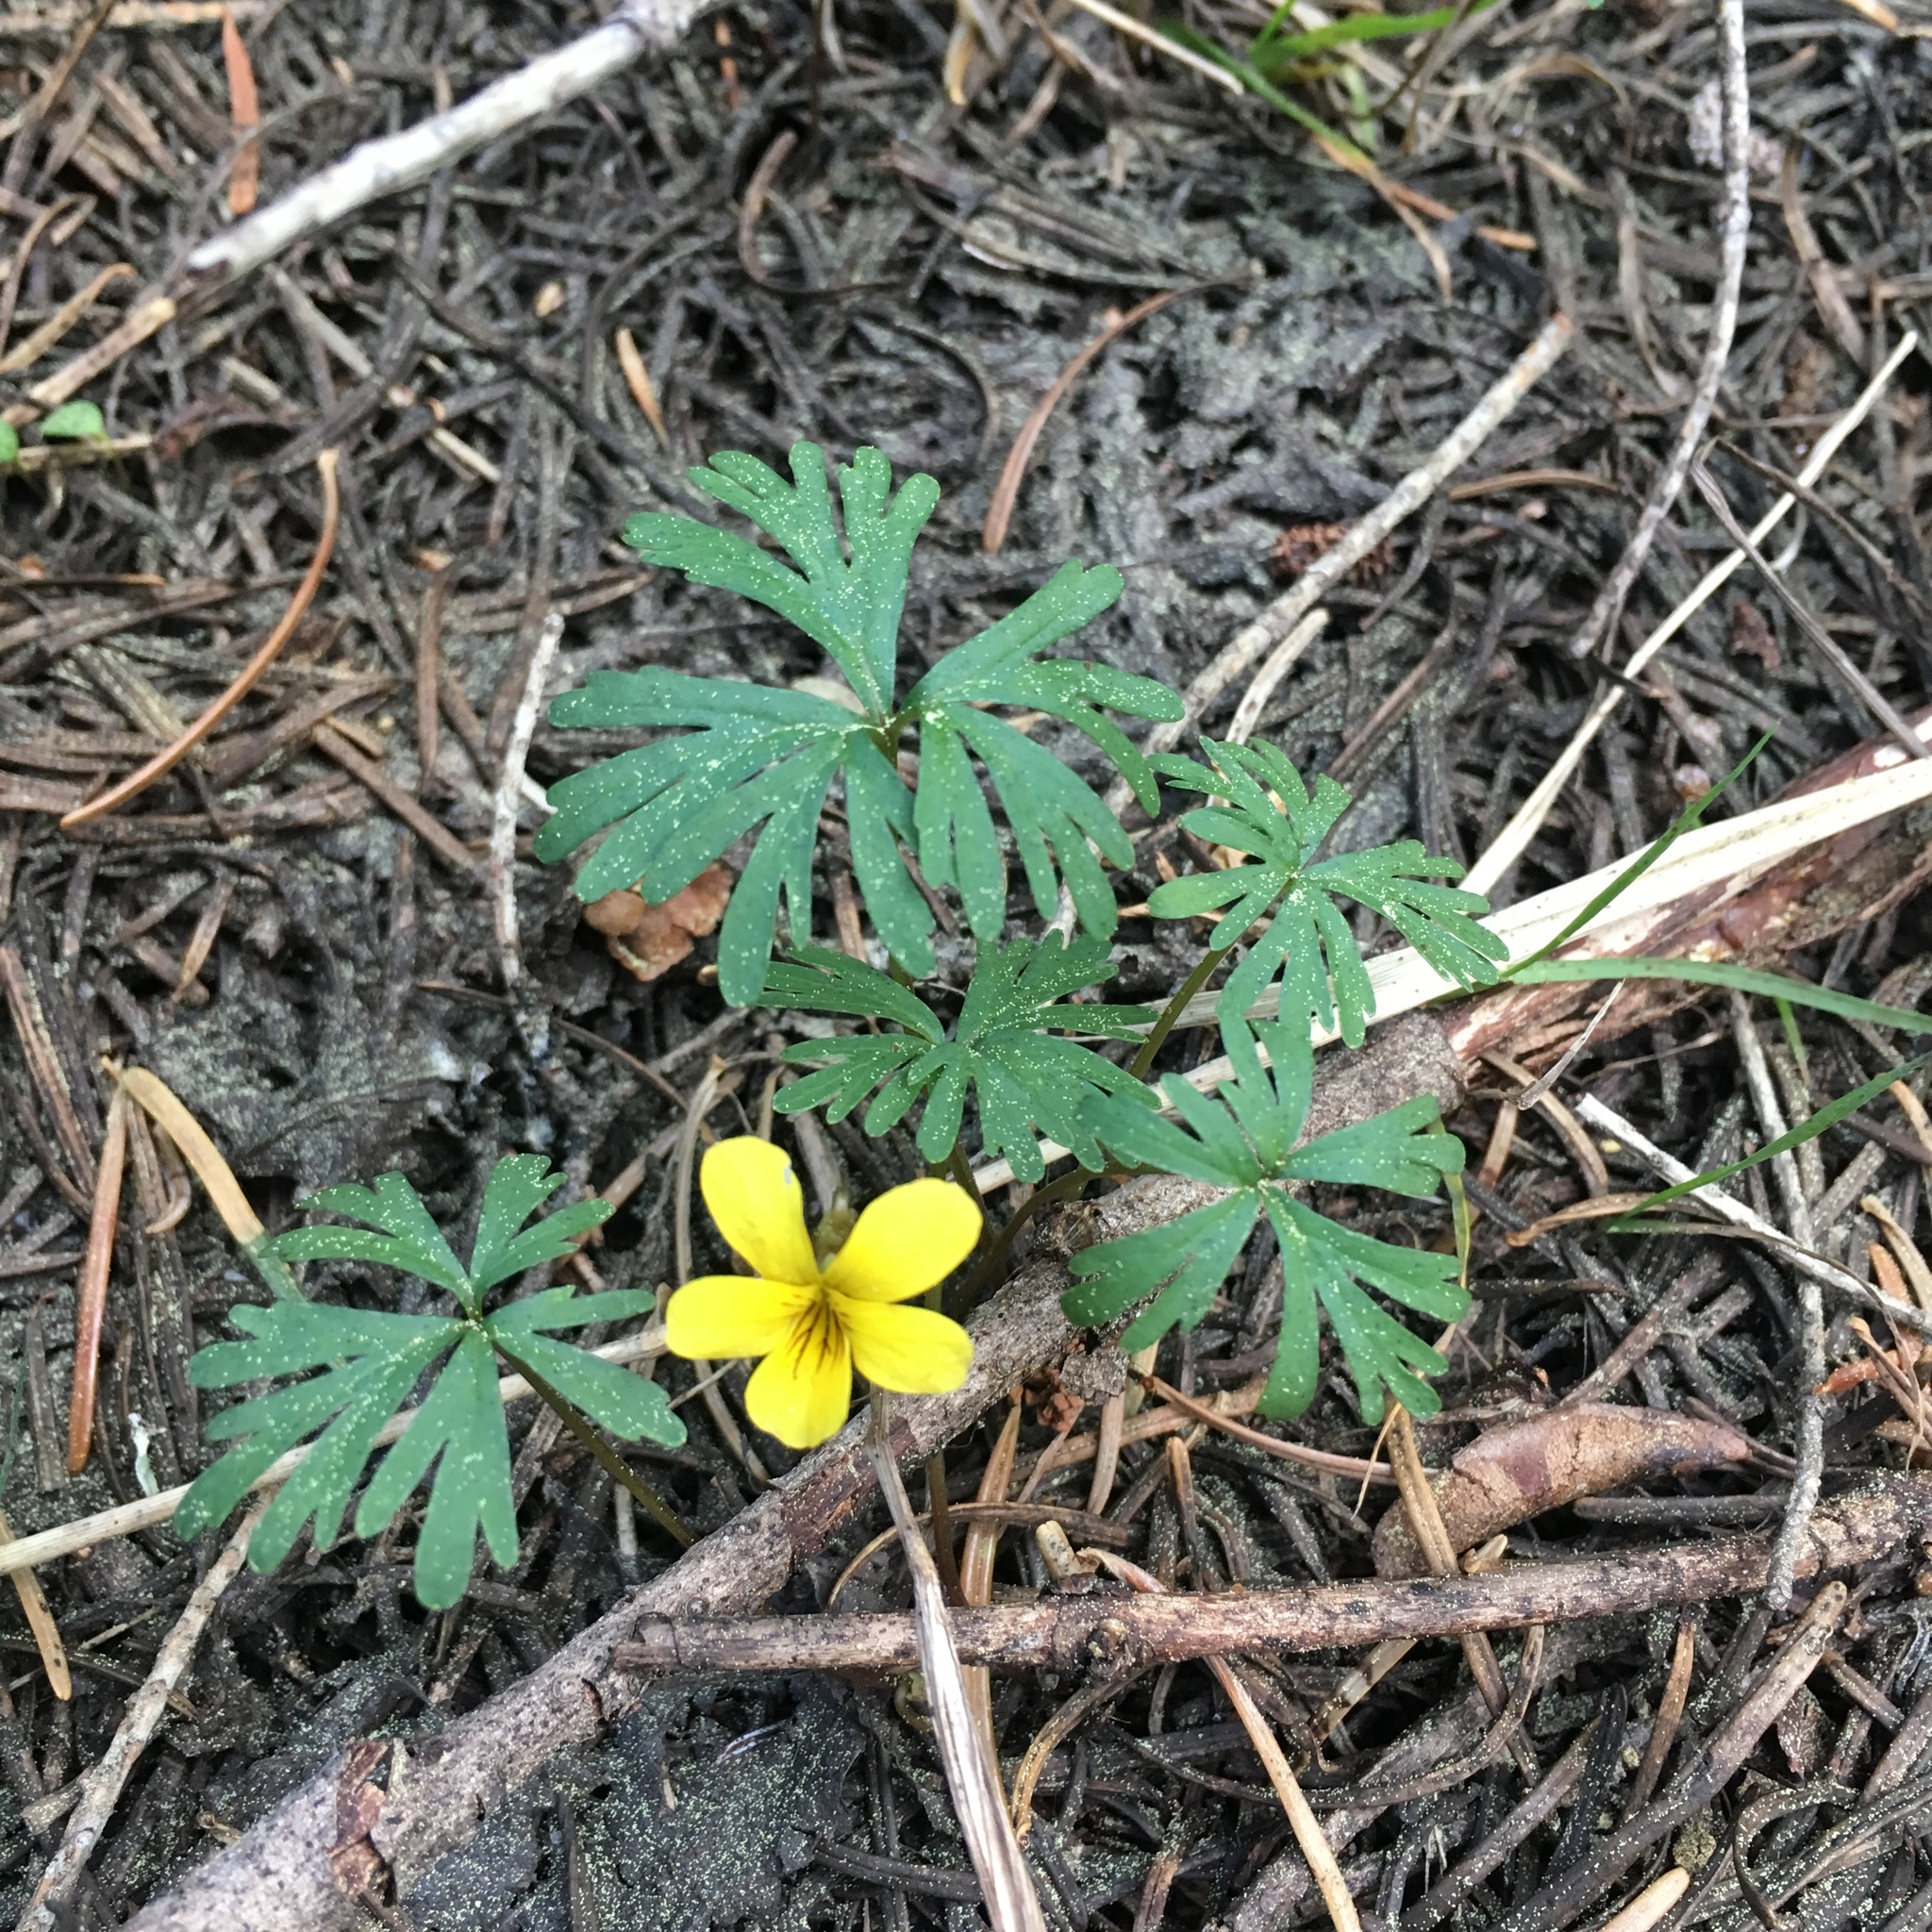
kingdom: Plantae
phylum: Tracheophyta
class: Magnoliopsida
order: Malpighiales
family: Violaceae
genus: Viola
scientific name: Viola sheltonii
